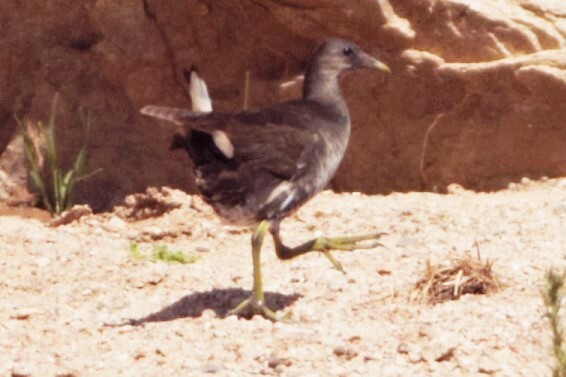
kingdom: Animalia
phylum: Chordata
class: Aves
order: Gruiformes
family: Rallidae
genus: Gallinula
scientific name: Gallinula chloropus
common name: Common moorhen
